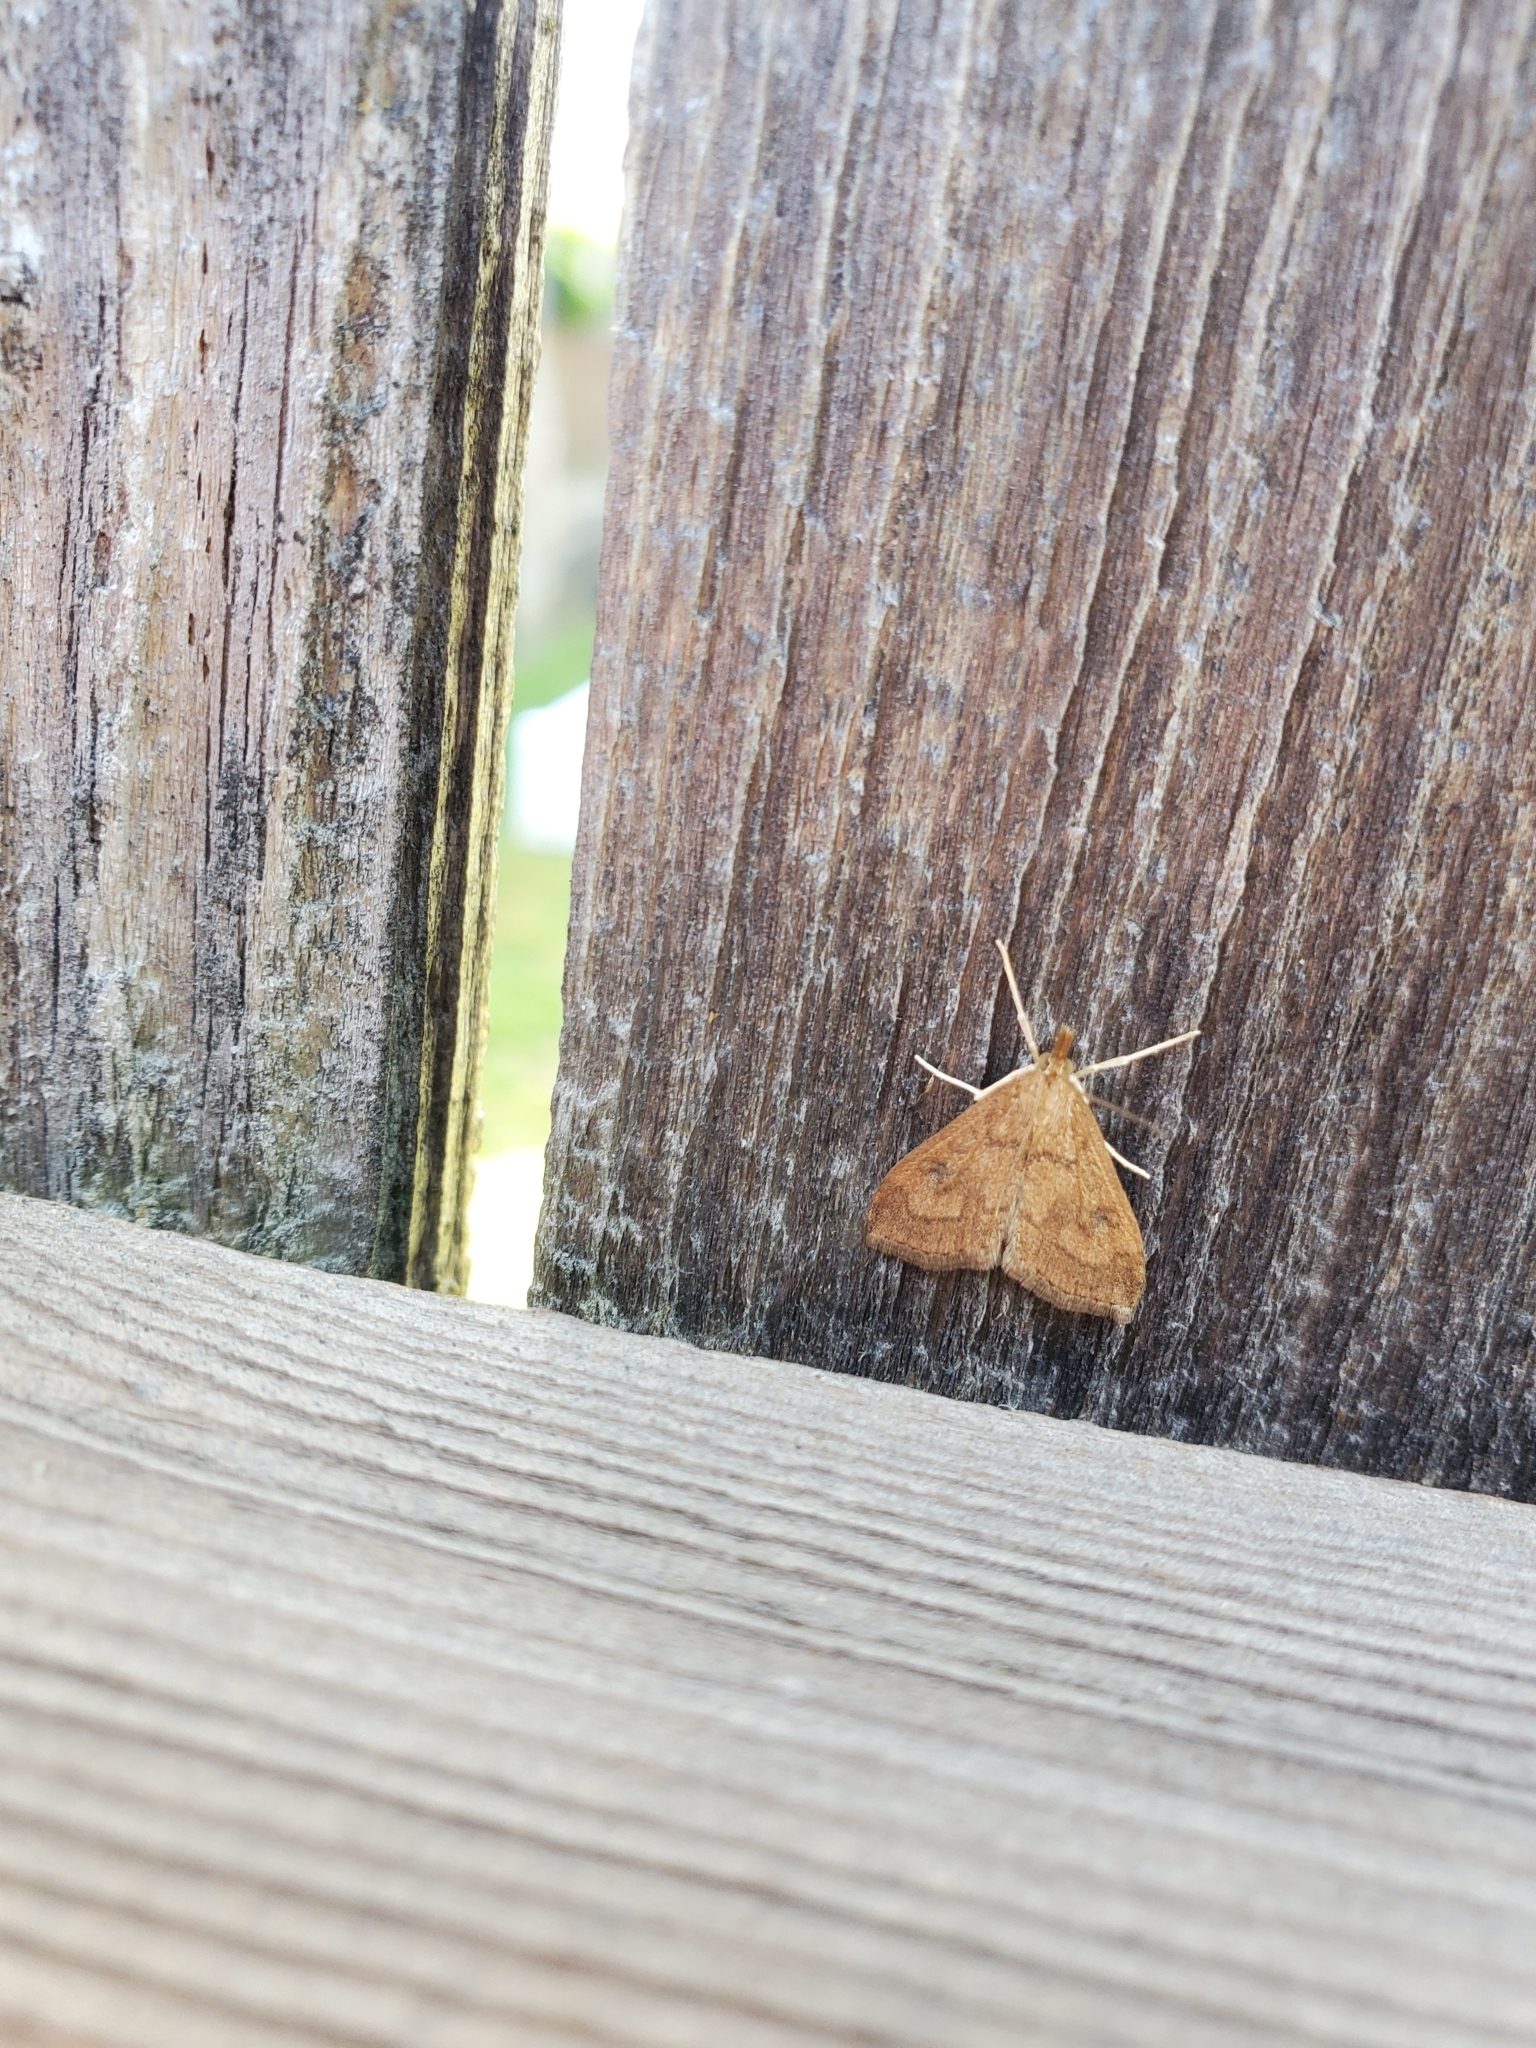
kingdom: Animalia
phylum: Arthropoda
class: Insecta
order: Lepidoptera
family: Crambidae
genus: Udea
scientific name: Udea profundalis
